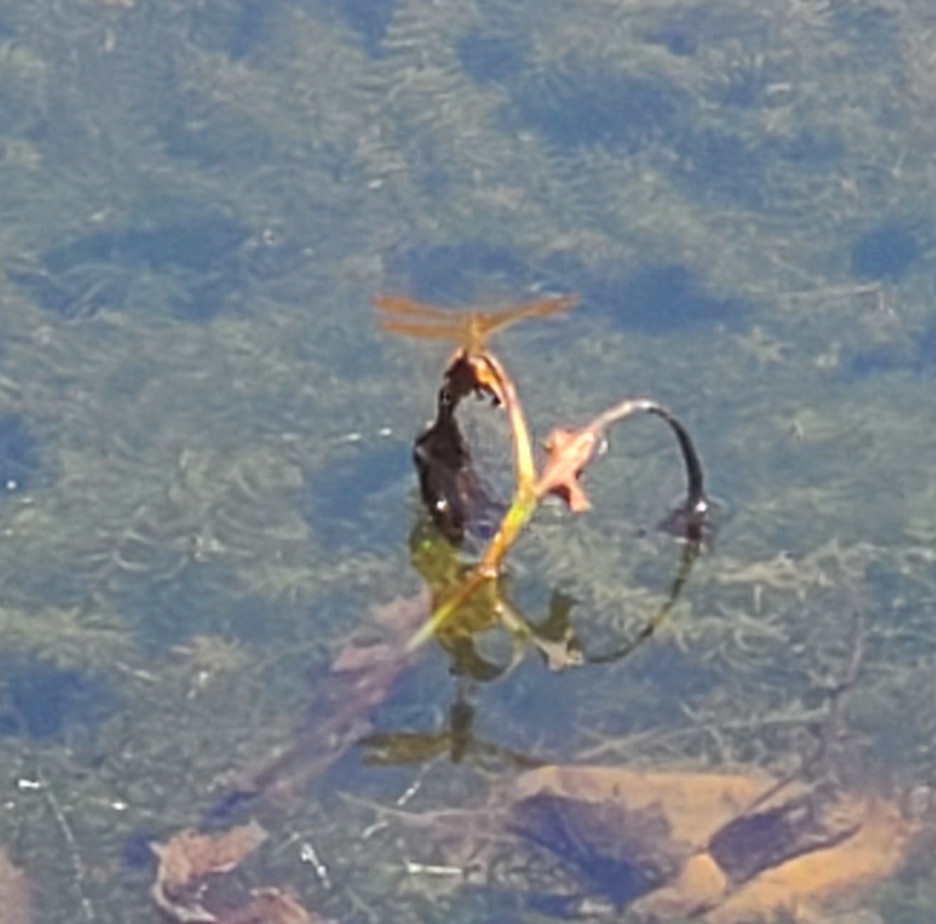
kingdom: Animalia
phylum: Arthropoda
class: Insecta
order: Odonata
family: Libellulidae
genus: Perithemis
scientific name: Perithemis tenera
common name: Eastern amberwing
